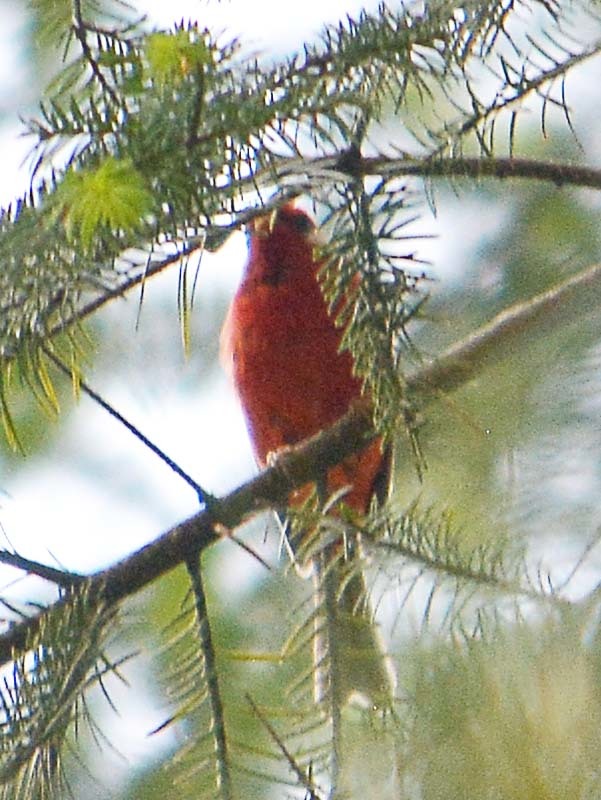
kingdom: Animalia
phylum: Chordata
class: Aves
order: Passeriformes
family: Parulidae
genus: Cardellina
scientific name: Cardellina rubra
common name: Red warbler
